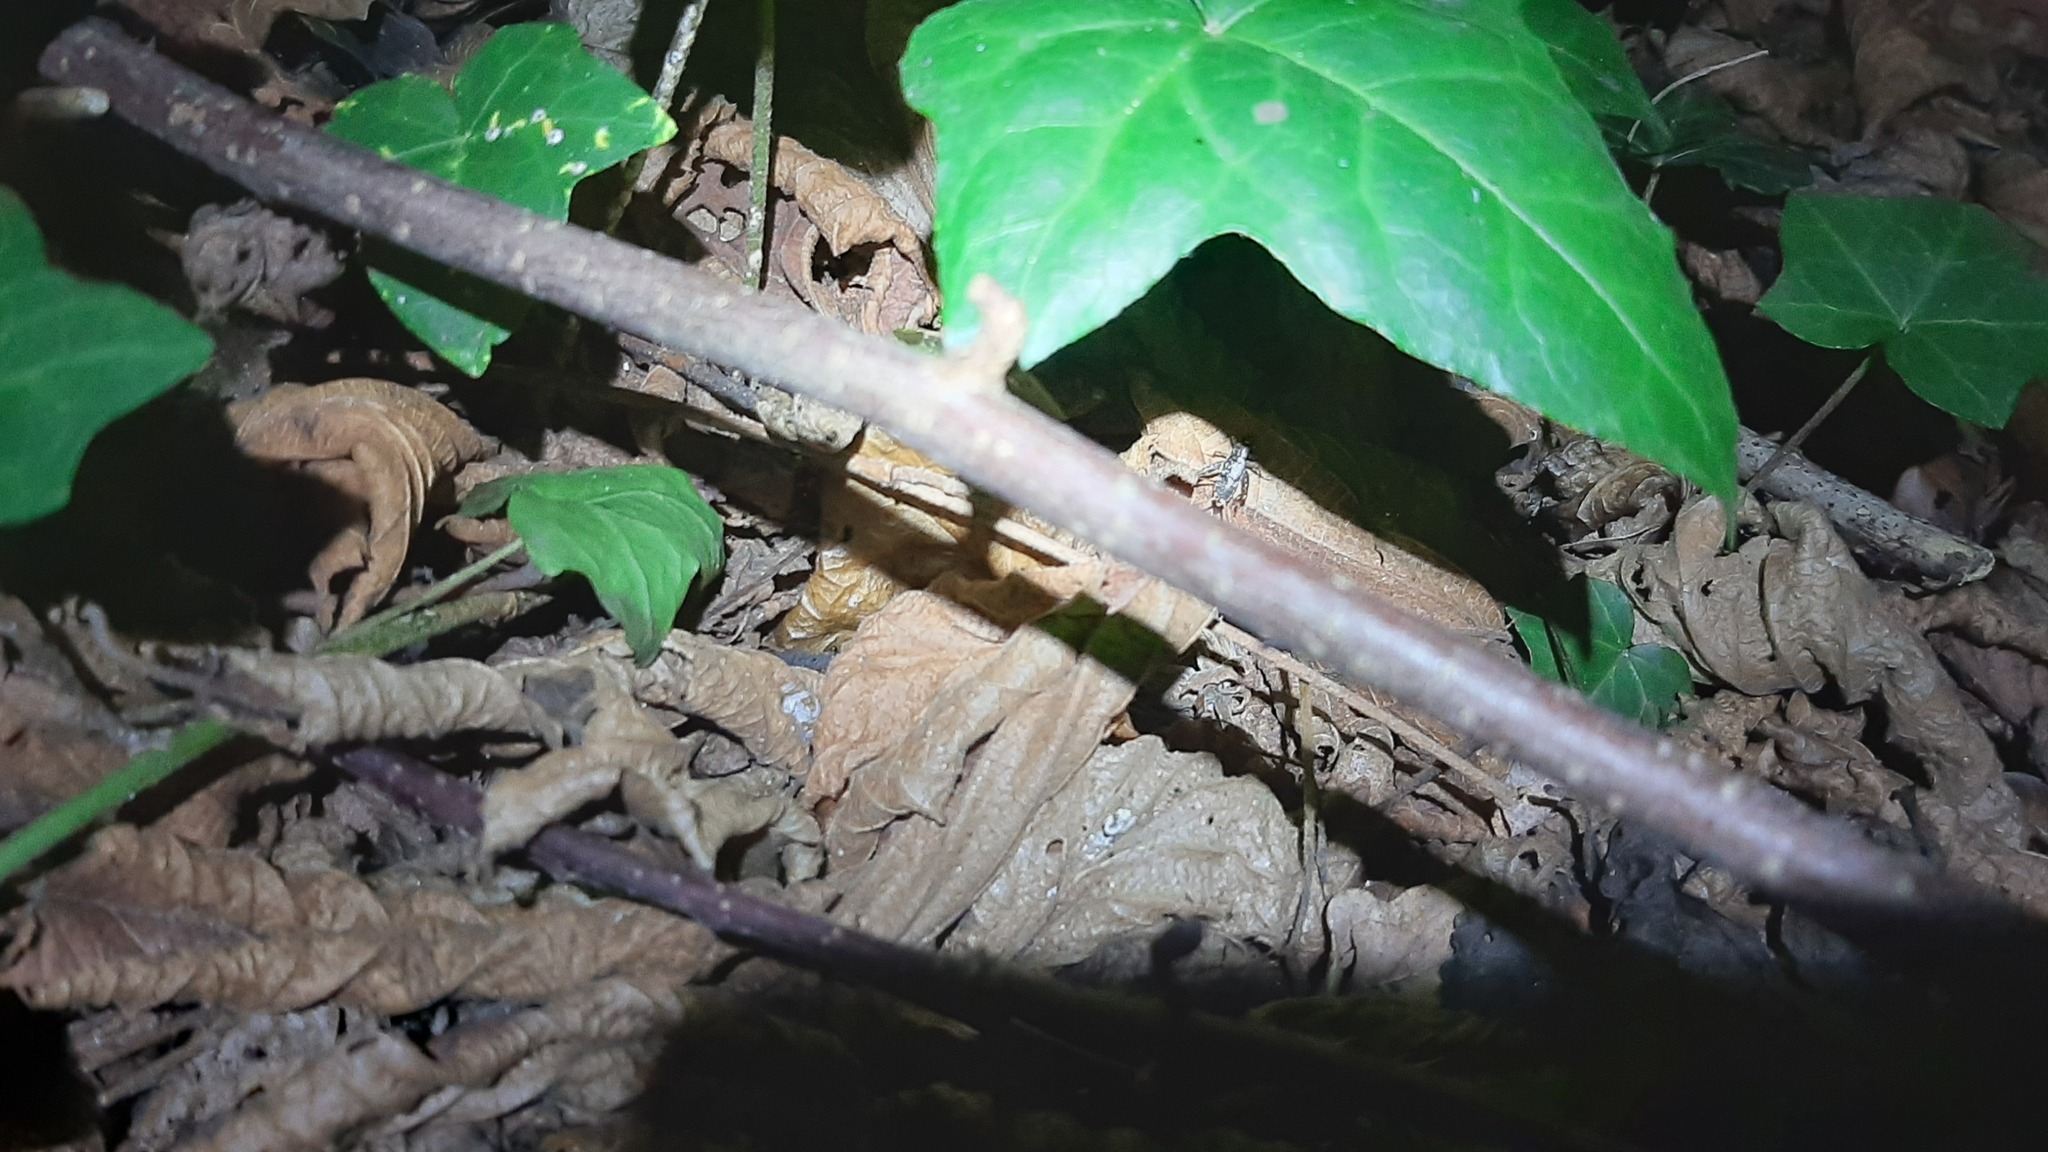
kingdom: Animalia
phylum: Arthropoda
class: Insecta
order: Orthoptera
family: Trigonidiidae
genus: Nemobius
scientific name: Nemobius sylvestris
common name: Wood-cricket
